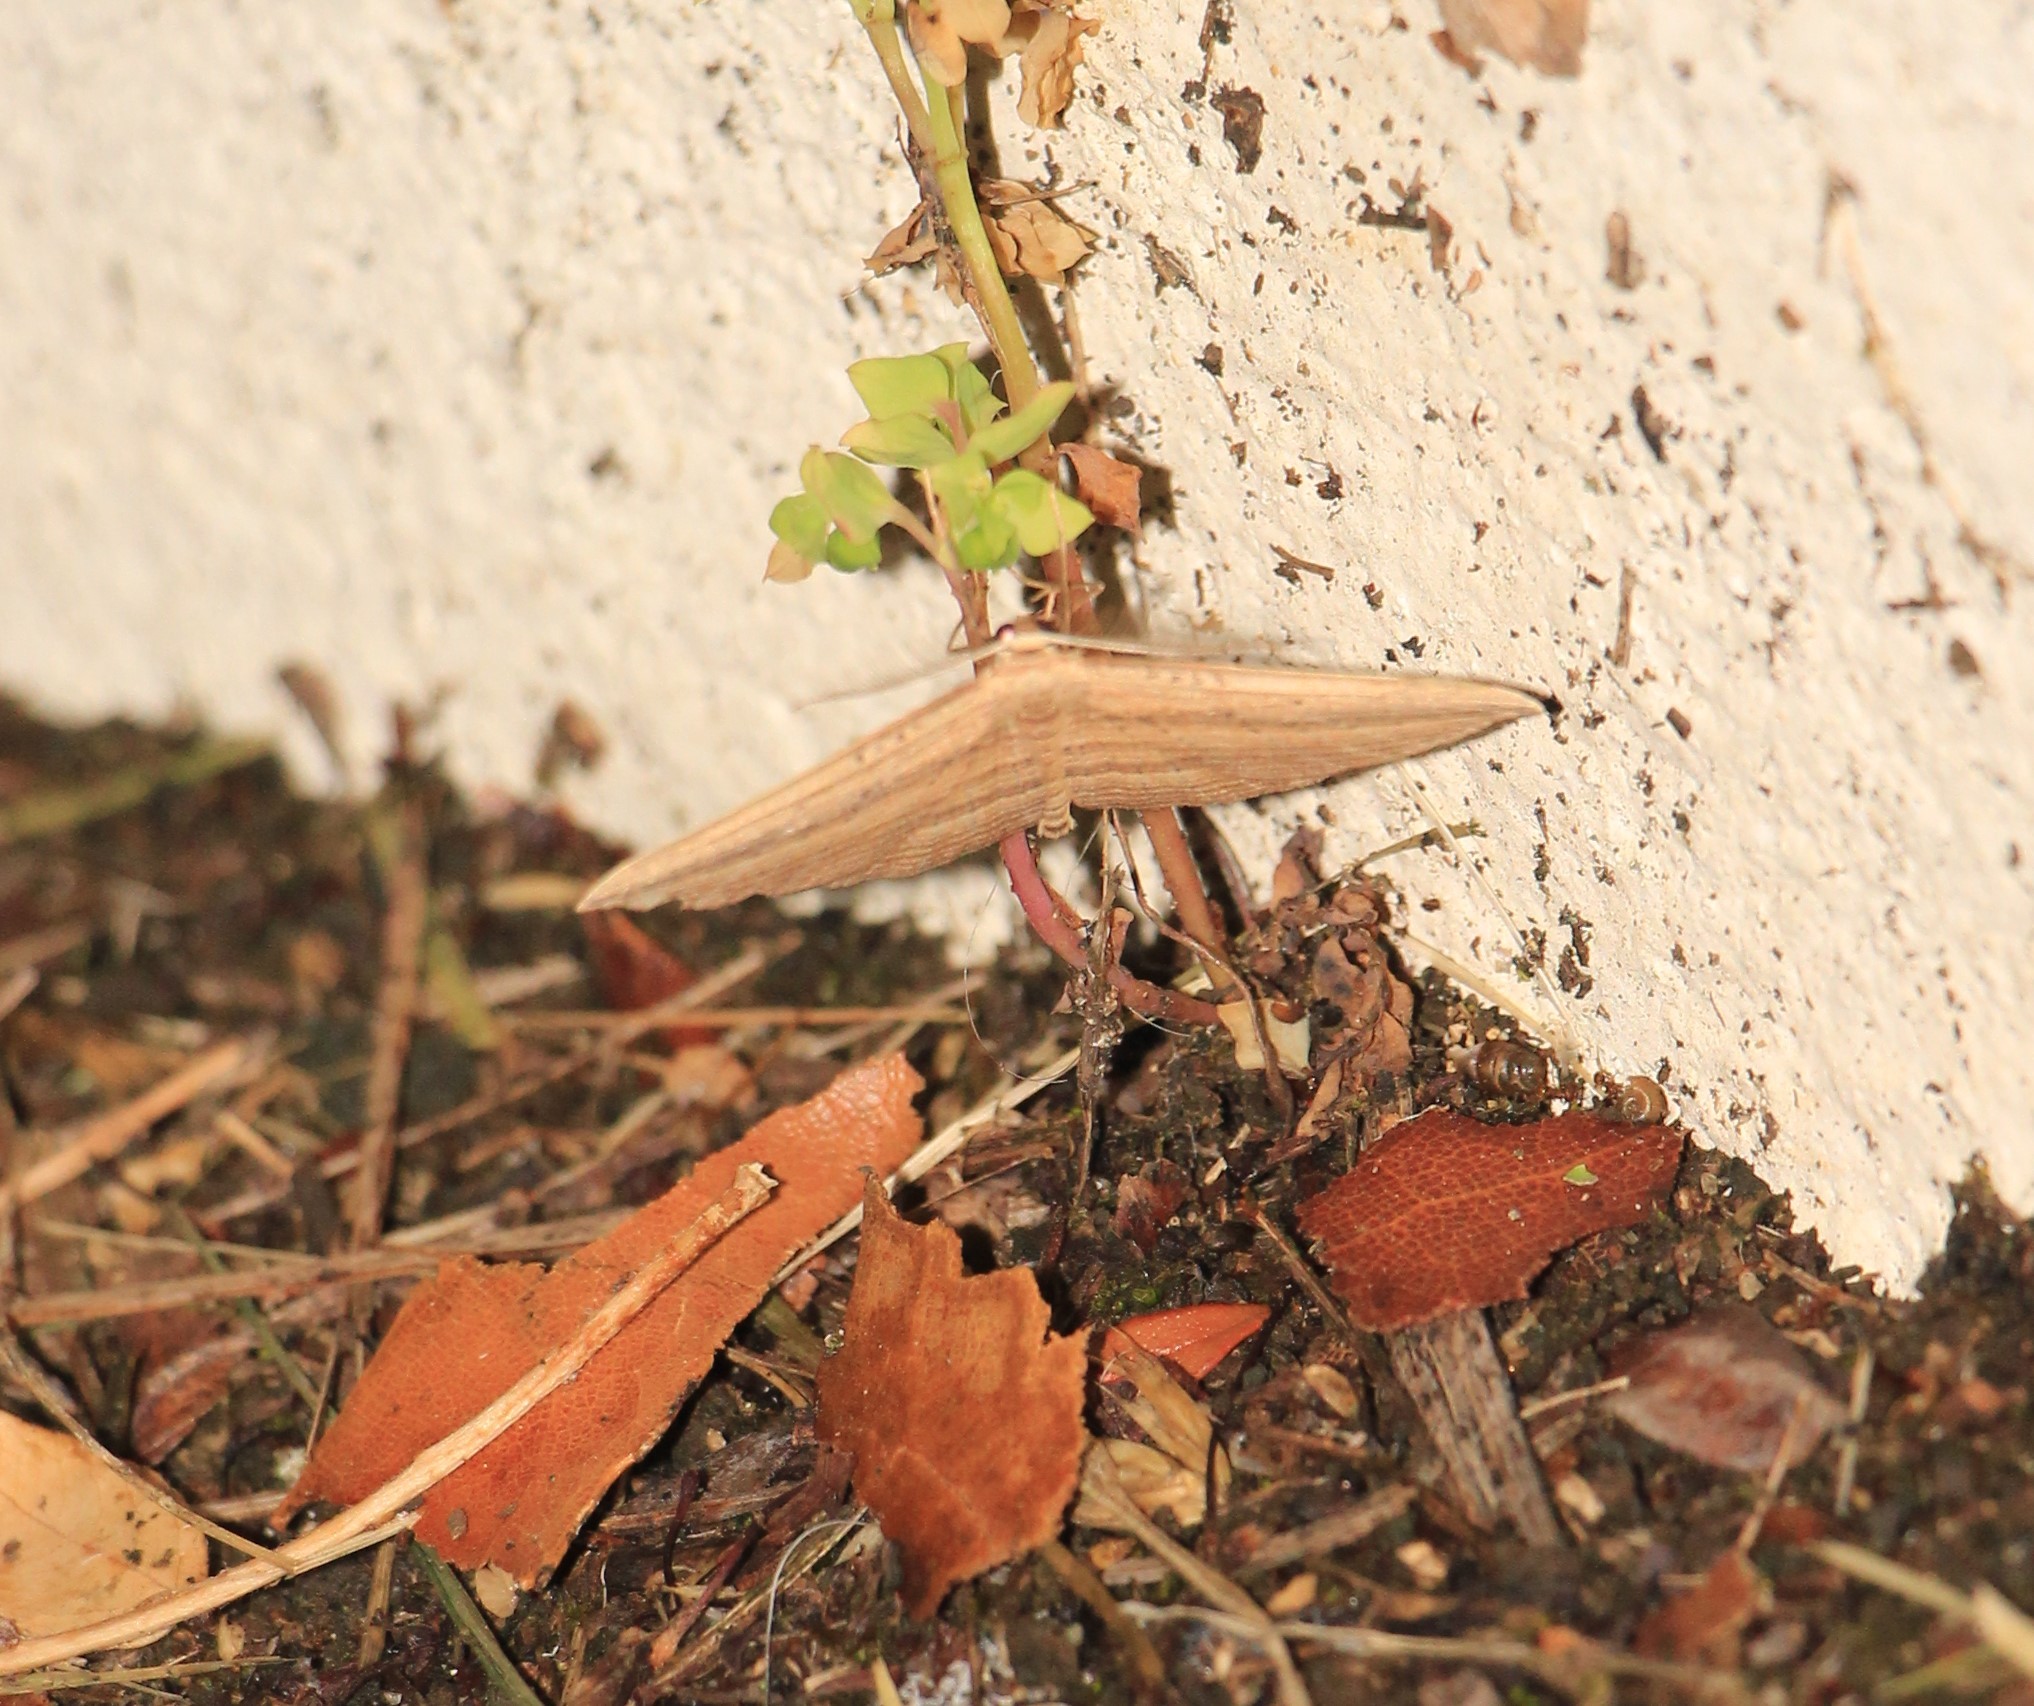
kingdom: Animalia
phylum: Arthropoda
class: Insecta
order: Lepidoptera
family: Geometridae
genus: Epiphryne
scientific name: Epiphryne verriculata
